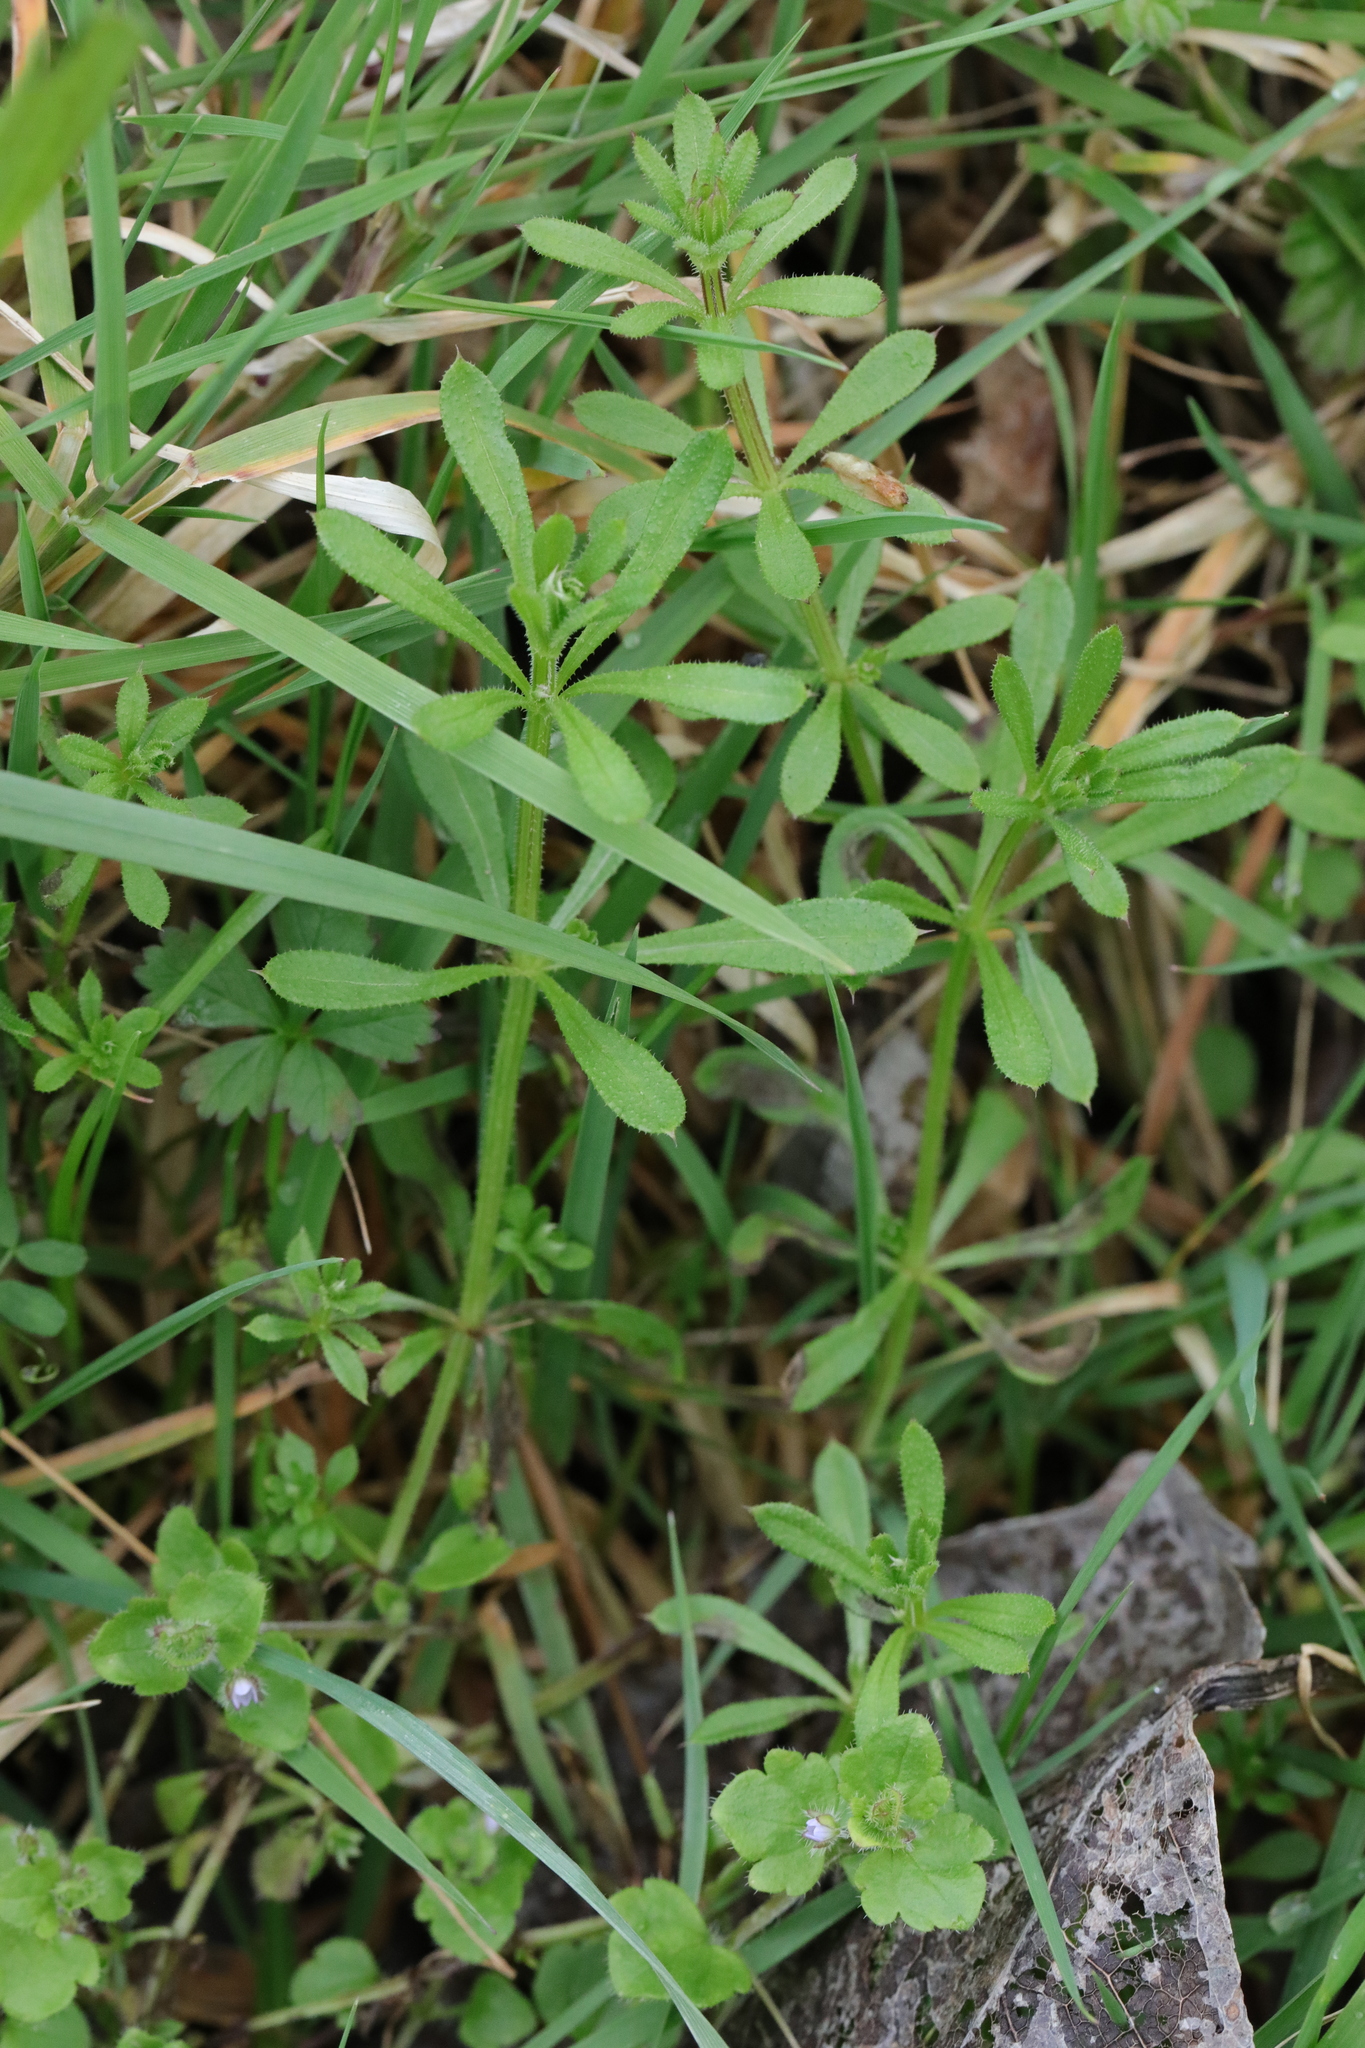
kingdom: Plantae
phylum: Tracheophyta
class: Magnoliopsida
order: Gentianales
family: Rubiaceae
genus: Galium
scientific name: Galium aparine
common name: Cleavers
